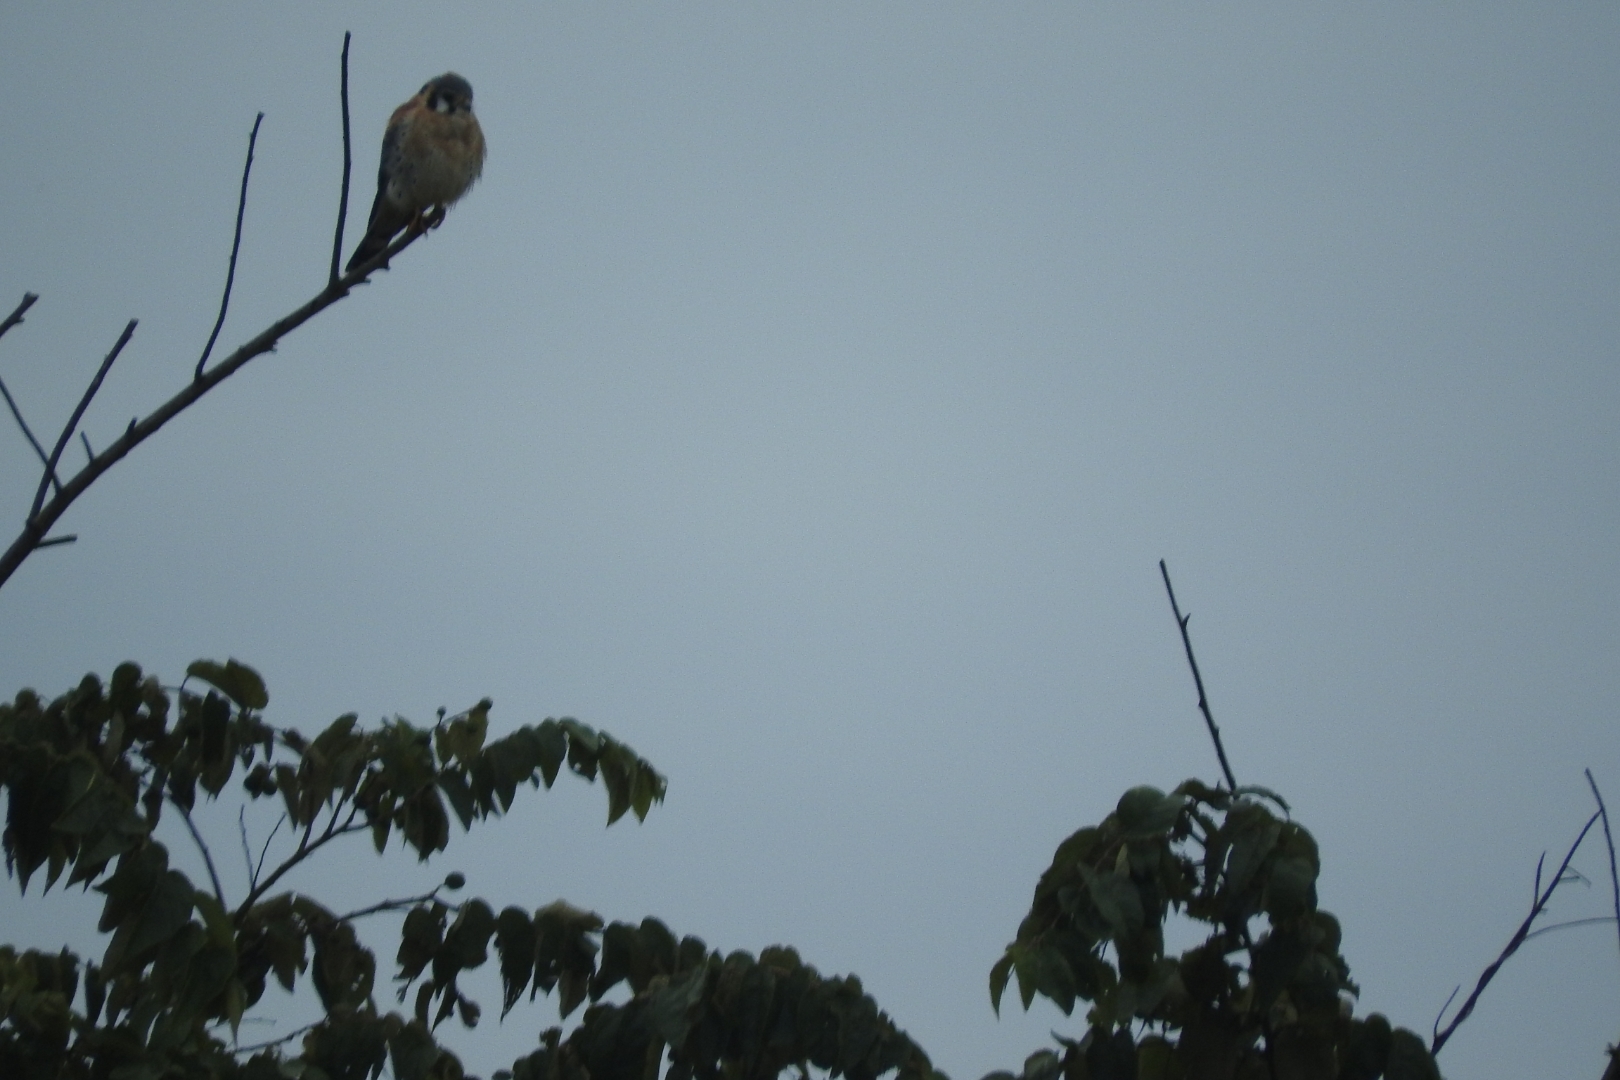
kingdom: Animalia
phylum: Chordata
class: Aves
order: Falconiformes
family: Falconidae
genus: Falco
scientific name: Falco sparverius
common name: American kestrel
